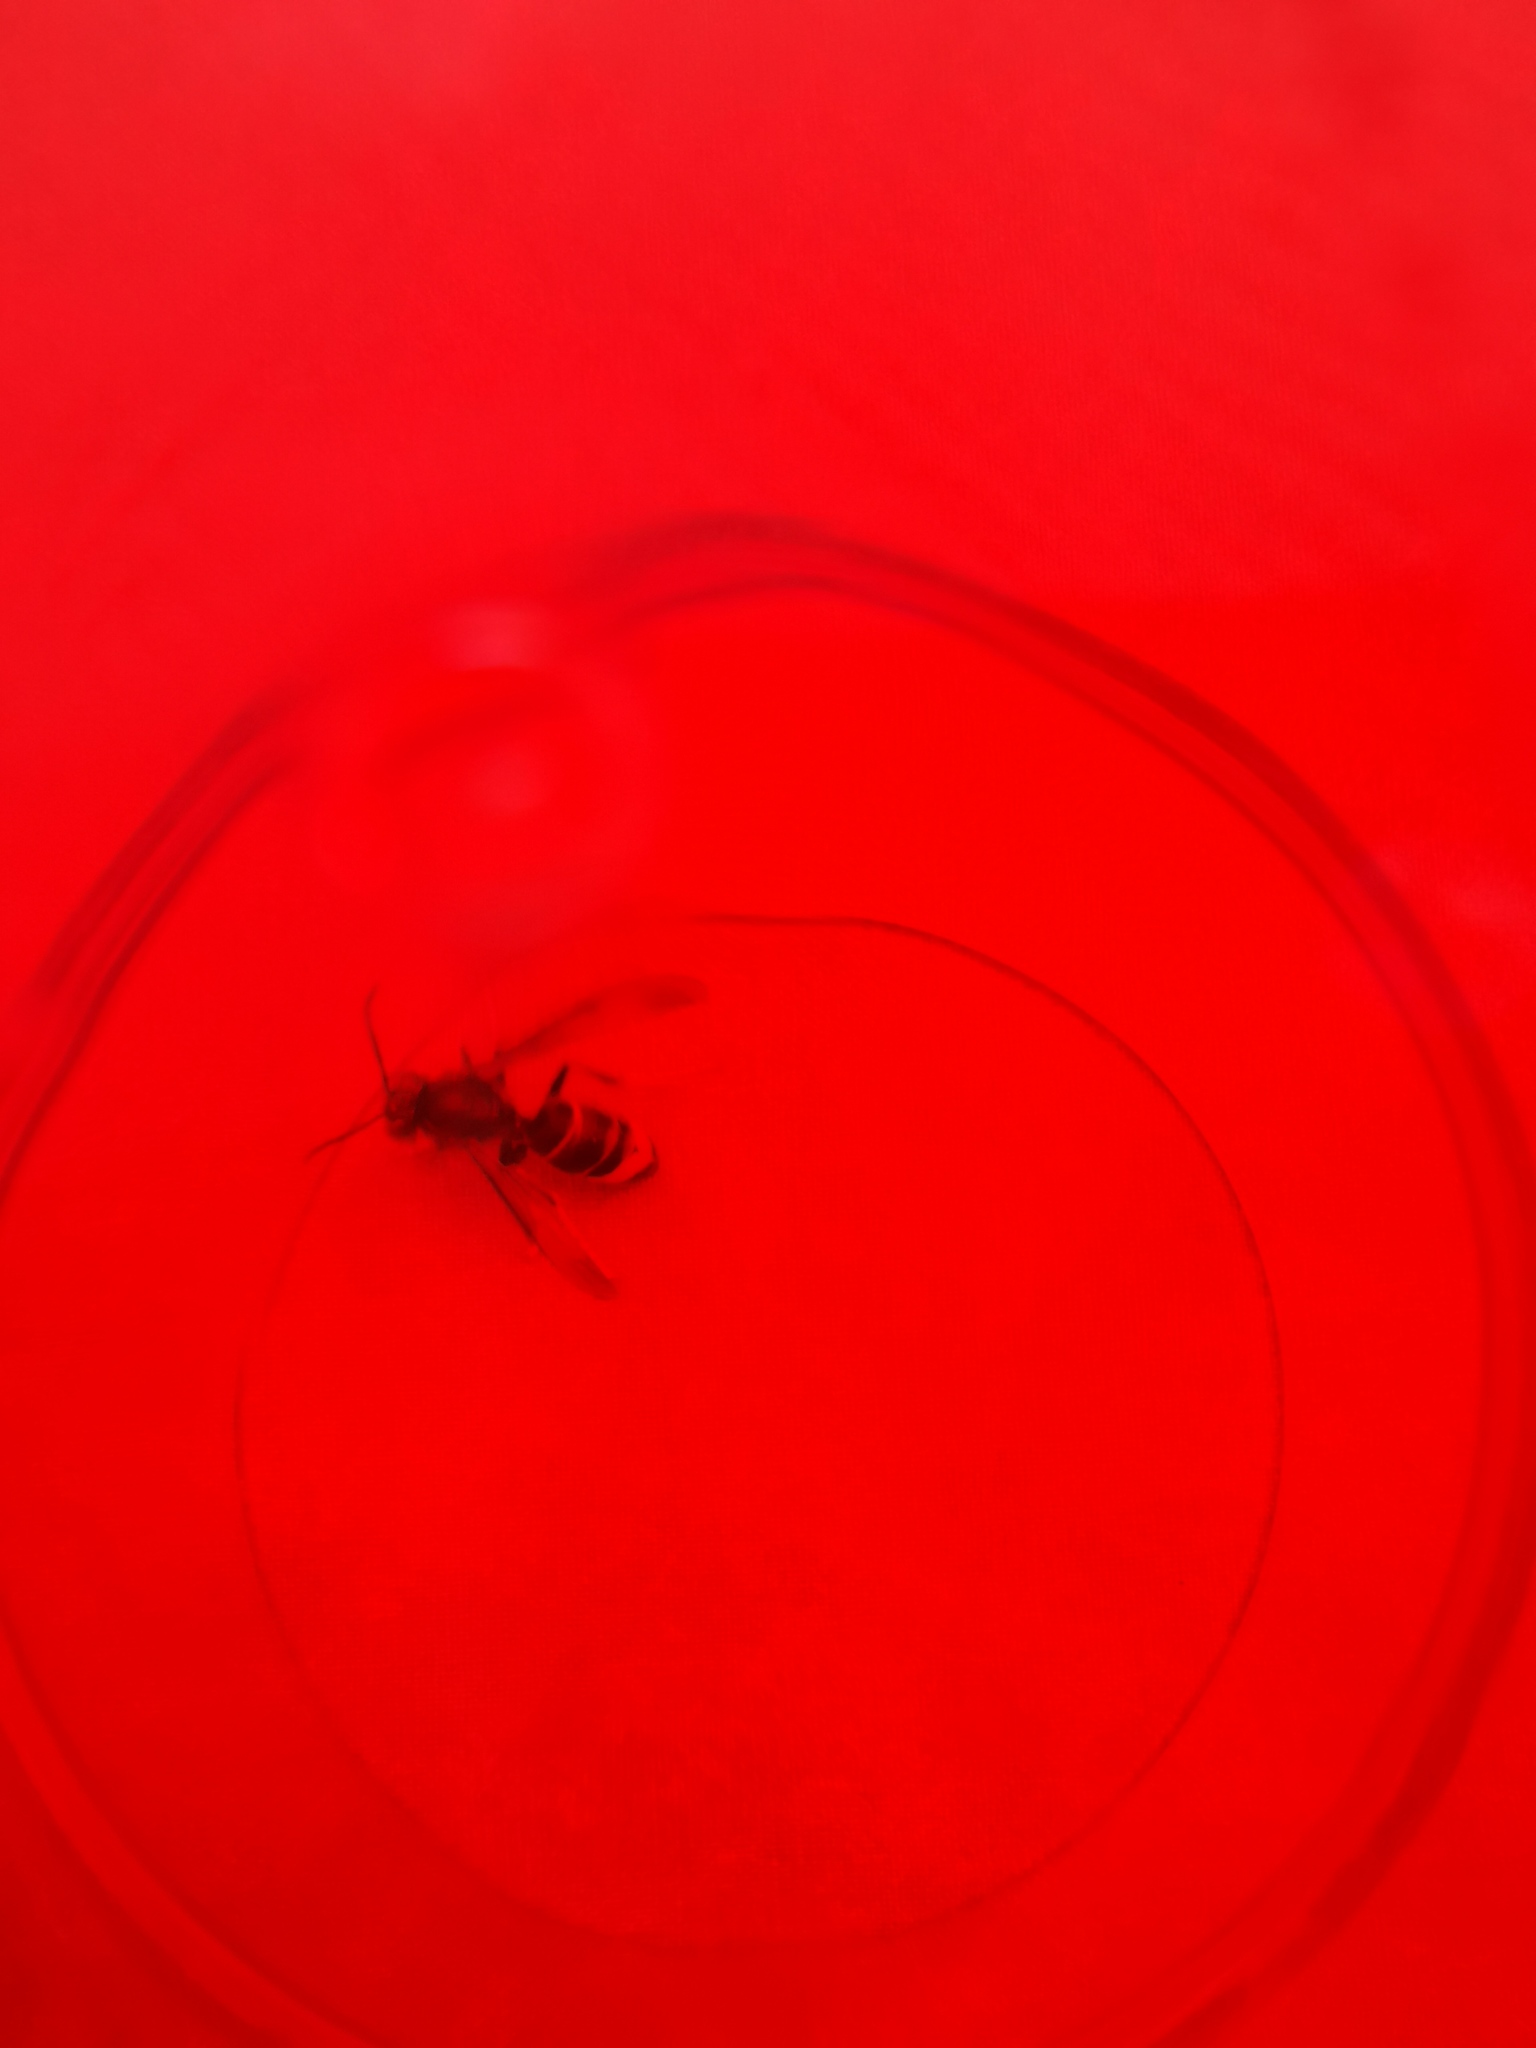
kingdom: Animalia
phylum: Arthropoda
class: Insecta
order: Hymenoptera
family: Vespidae
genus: Vespa
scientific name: Vespa velutina
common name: Asian hornet
